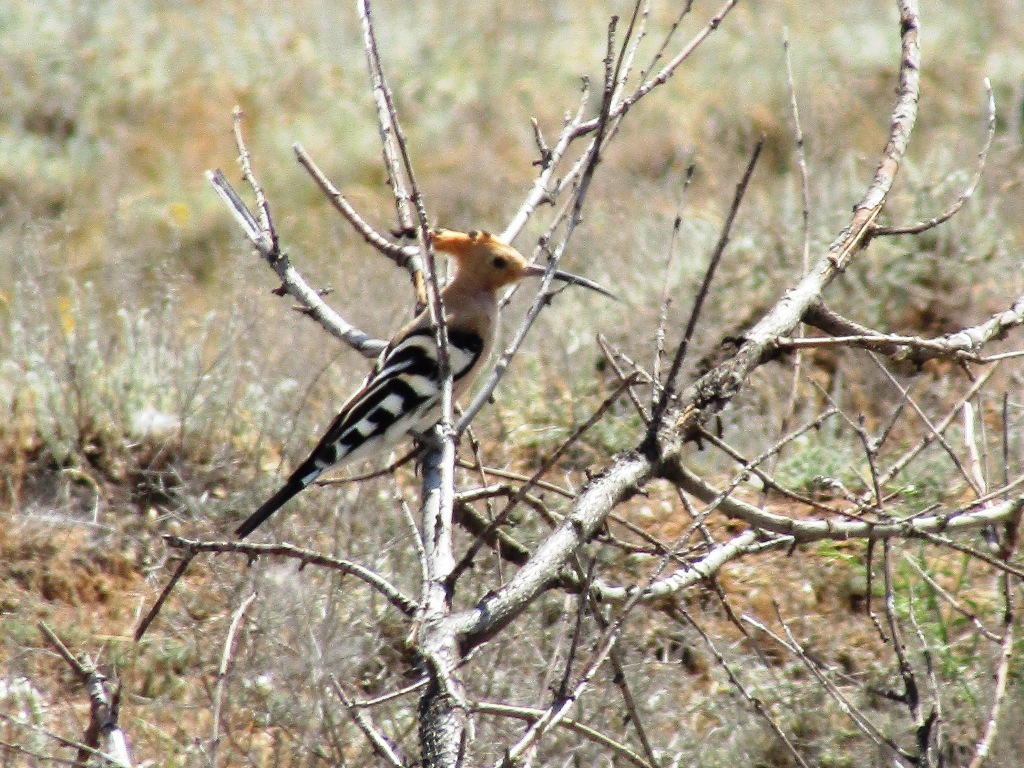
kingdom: Animalia
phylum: Chordata
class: Aves
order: Bucerotiformes
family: Upupidae
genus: Upupa
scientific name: Upupa epops
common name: Eurasian hoopoe
